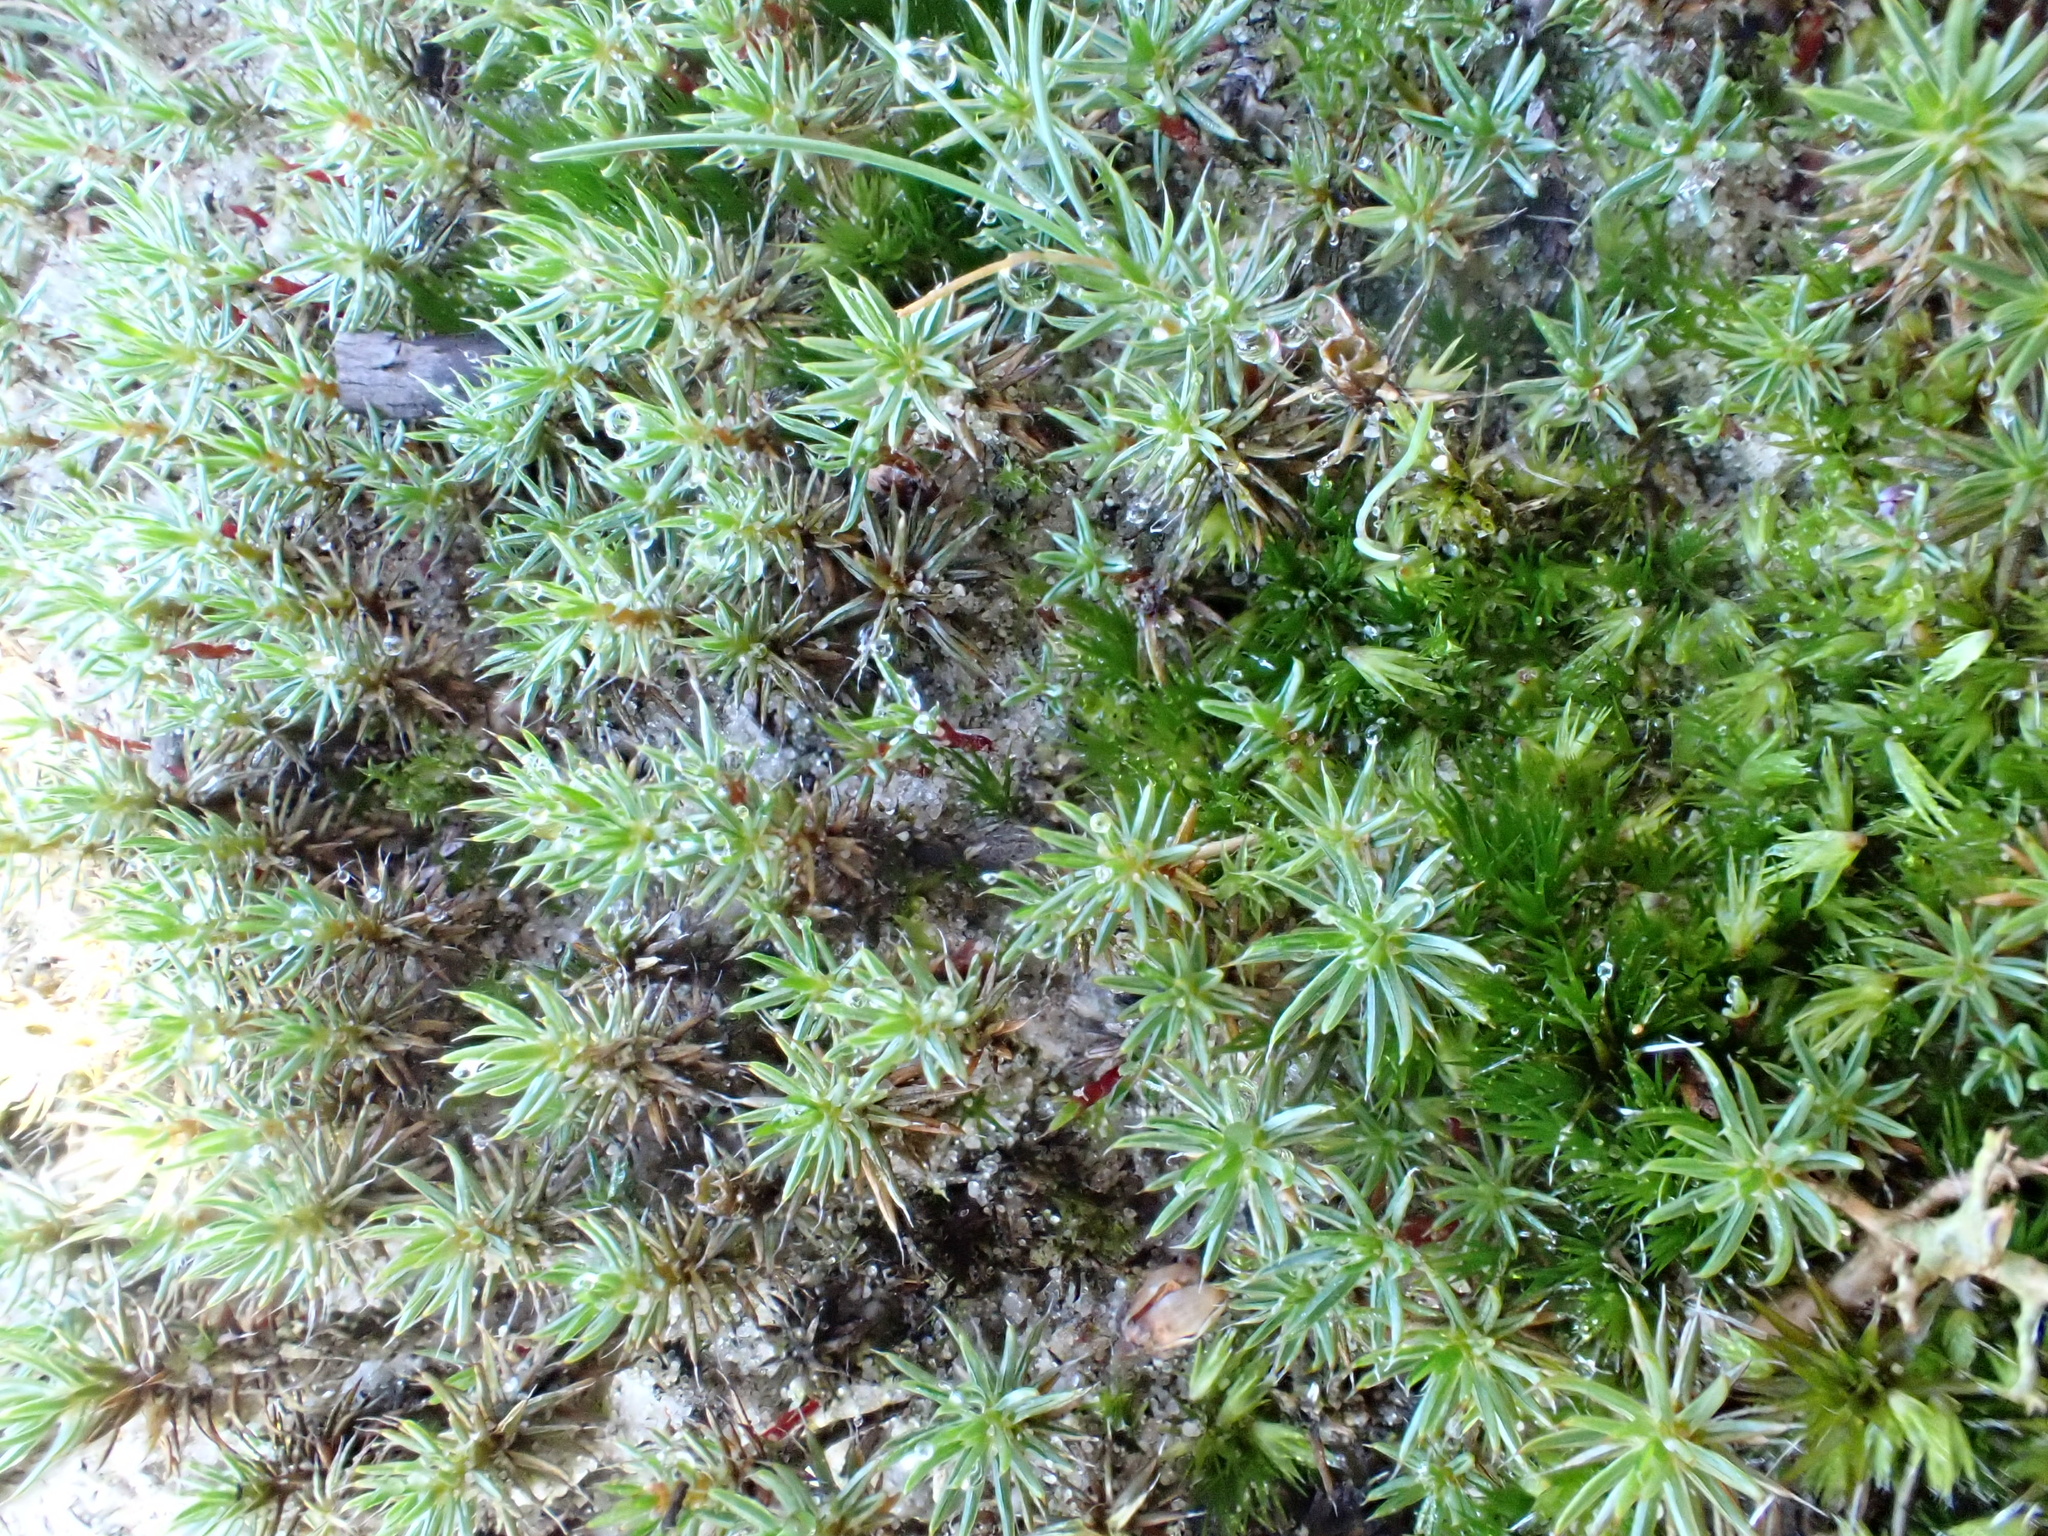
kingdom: Plantae
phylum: Bryophyta
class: Polytrichopsida
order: Polytrichales
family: Polytrichaceae
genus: Polytrichum
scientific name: Polytrichum piliferum
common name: Bristly haircap
